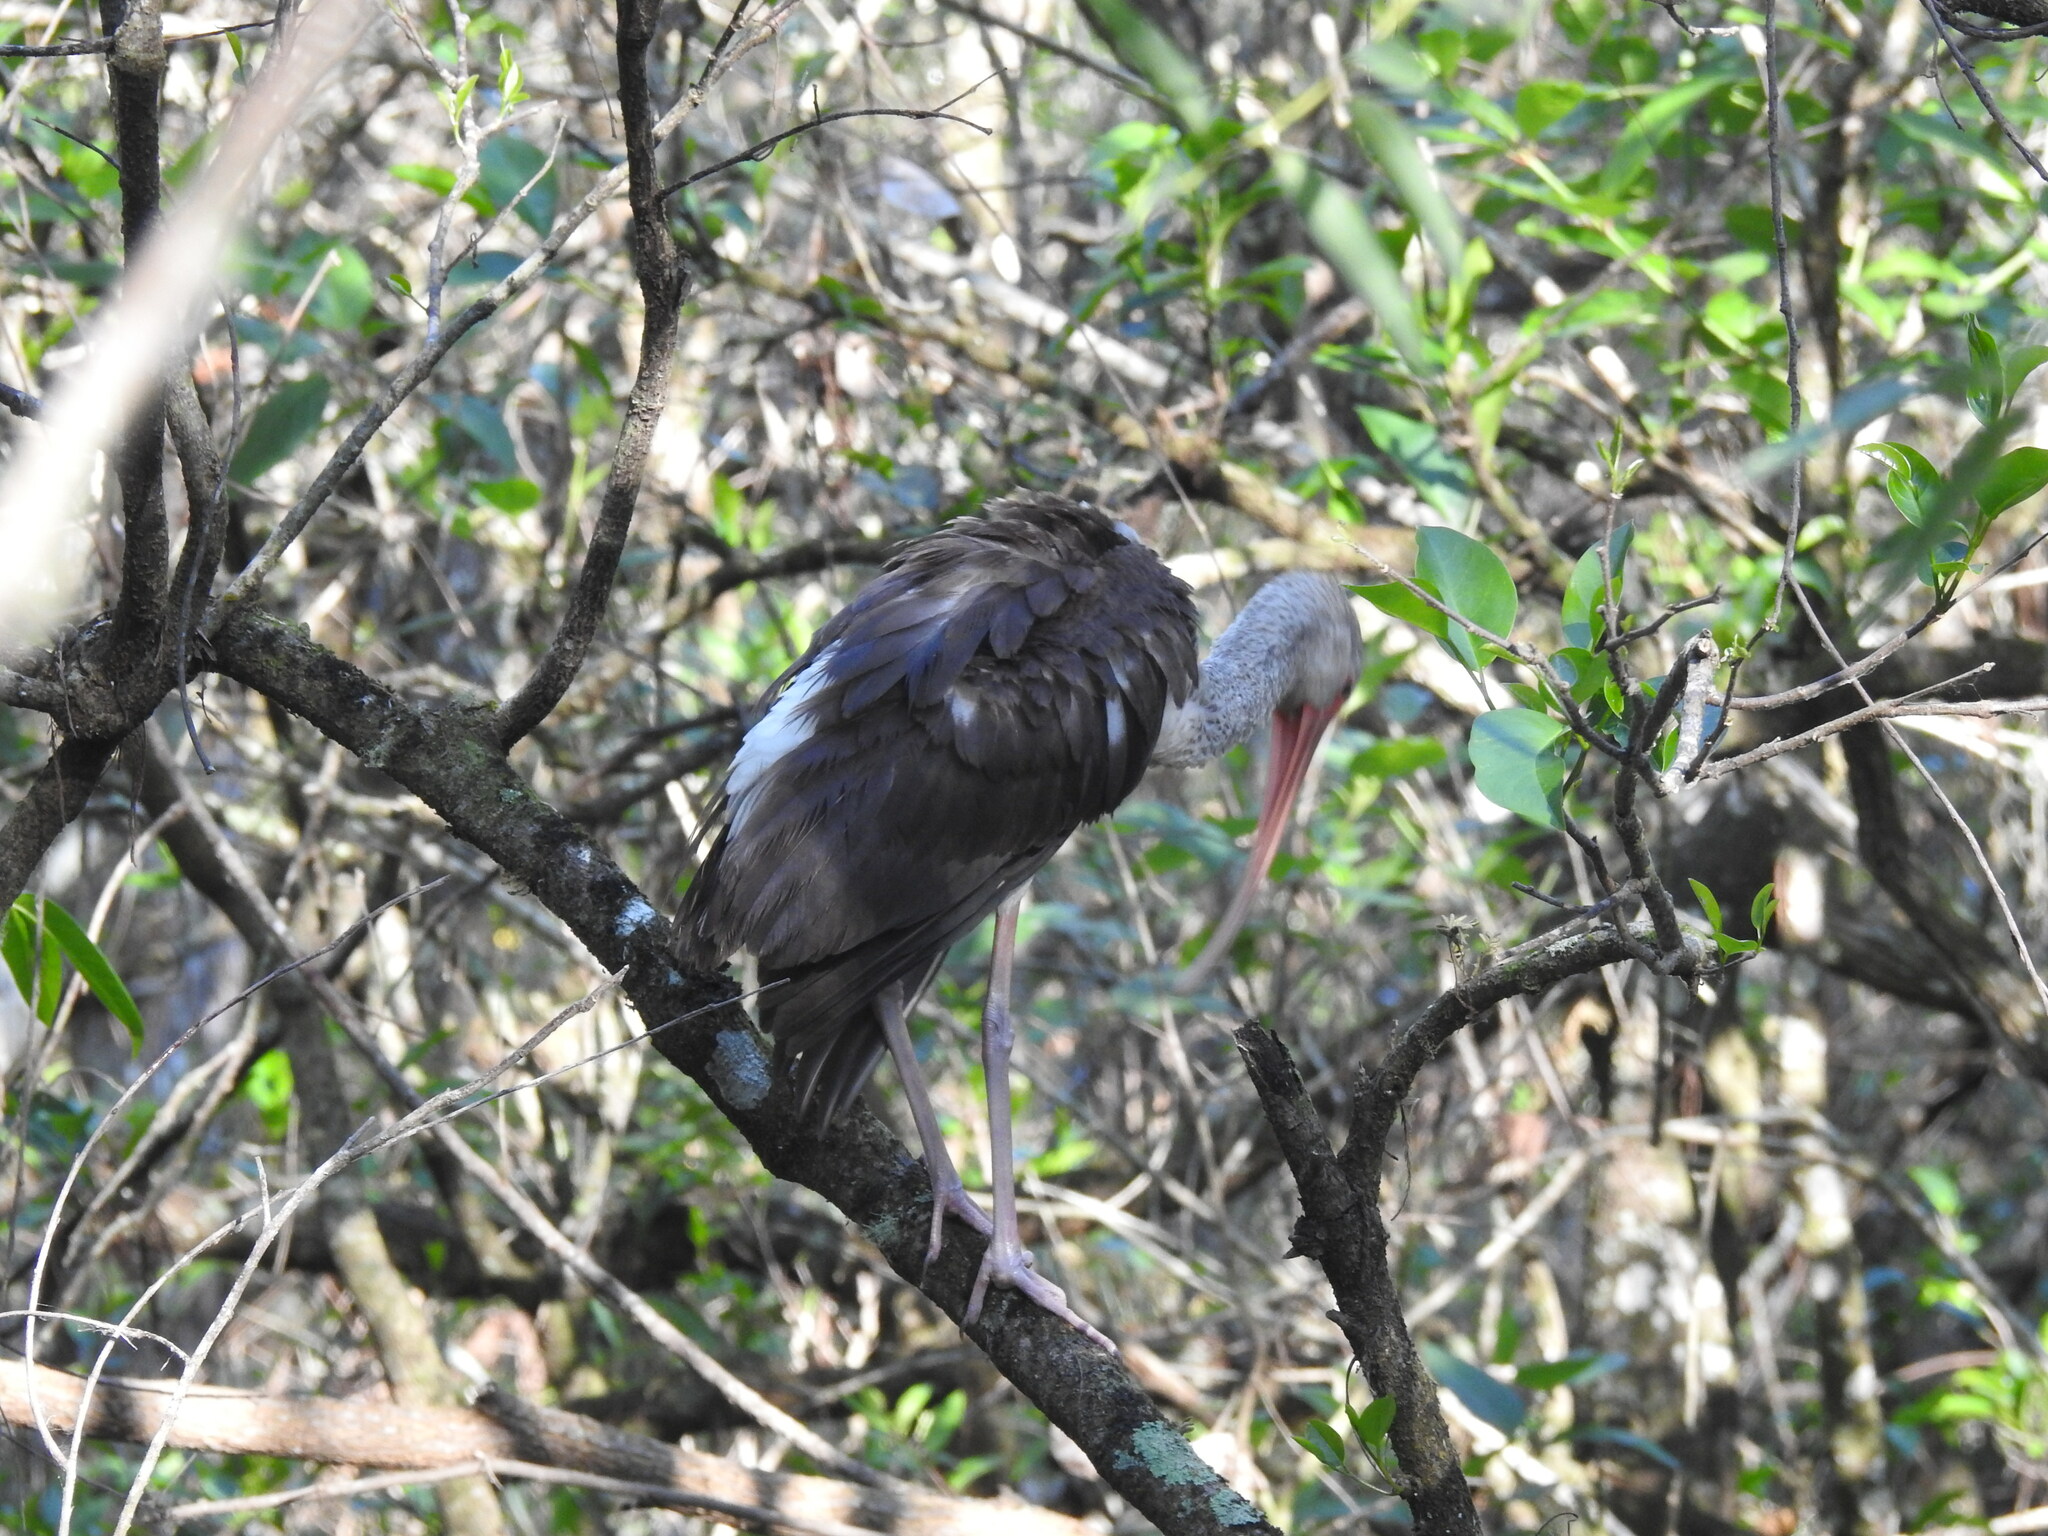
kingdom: Animalia
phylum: Chordata
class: Aves
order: Pelecaniformes
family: Threskiornithidae
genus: Eudocimus
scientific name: Eudocimus albus
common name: White ibis
